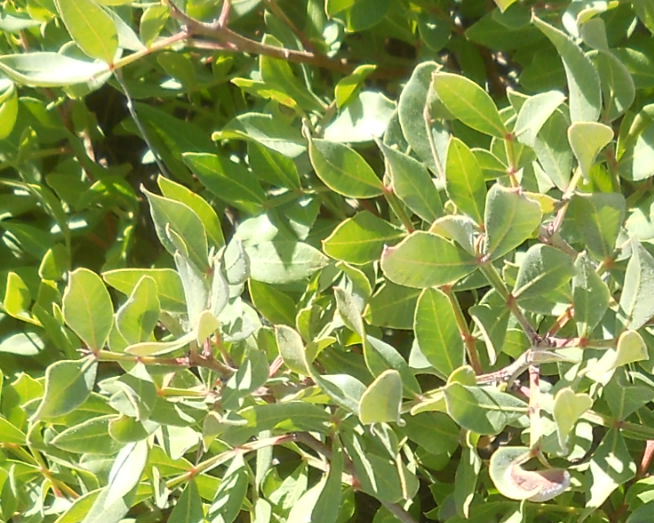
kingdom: Plantae
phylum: Tracheophyta
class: Magnoliopsida
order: Sapindales
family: Anacardiaceae
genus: Pistacia
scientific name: Pistacia lentiscus
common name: Lentisk
